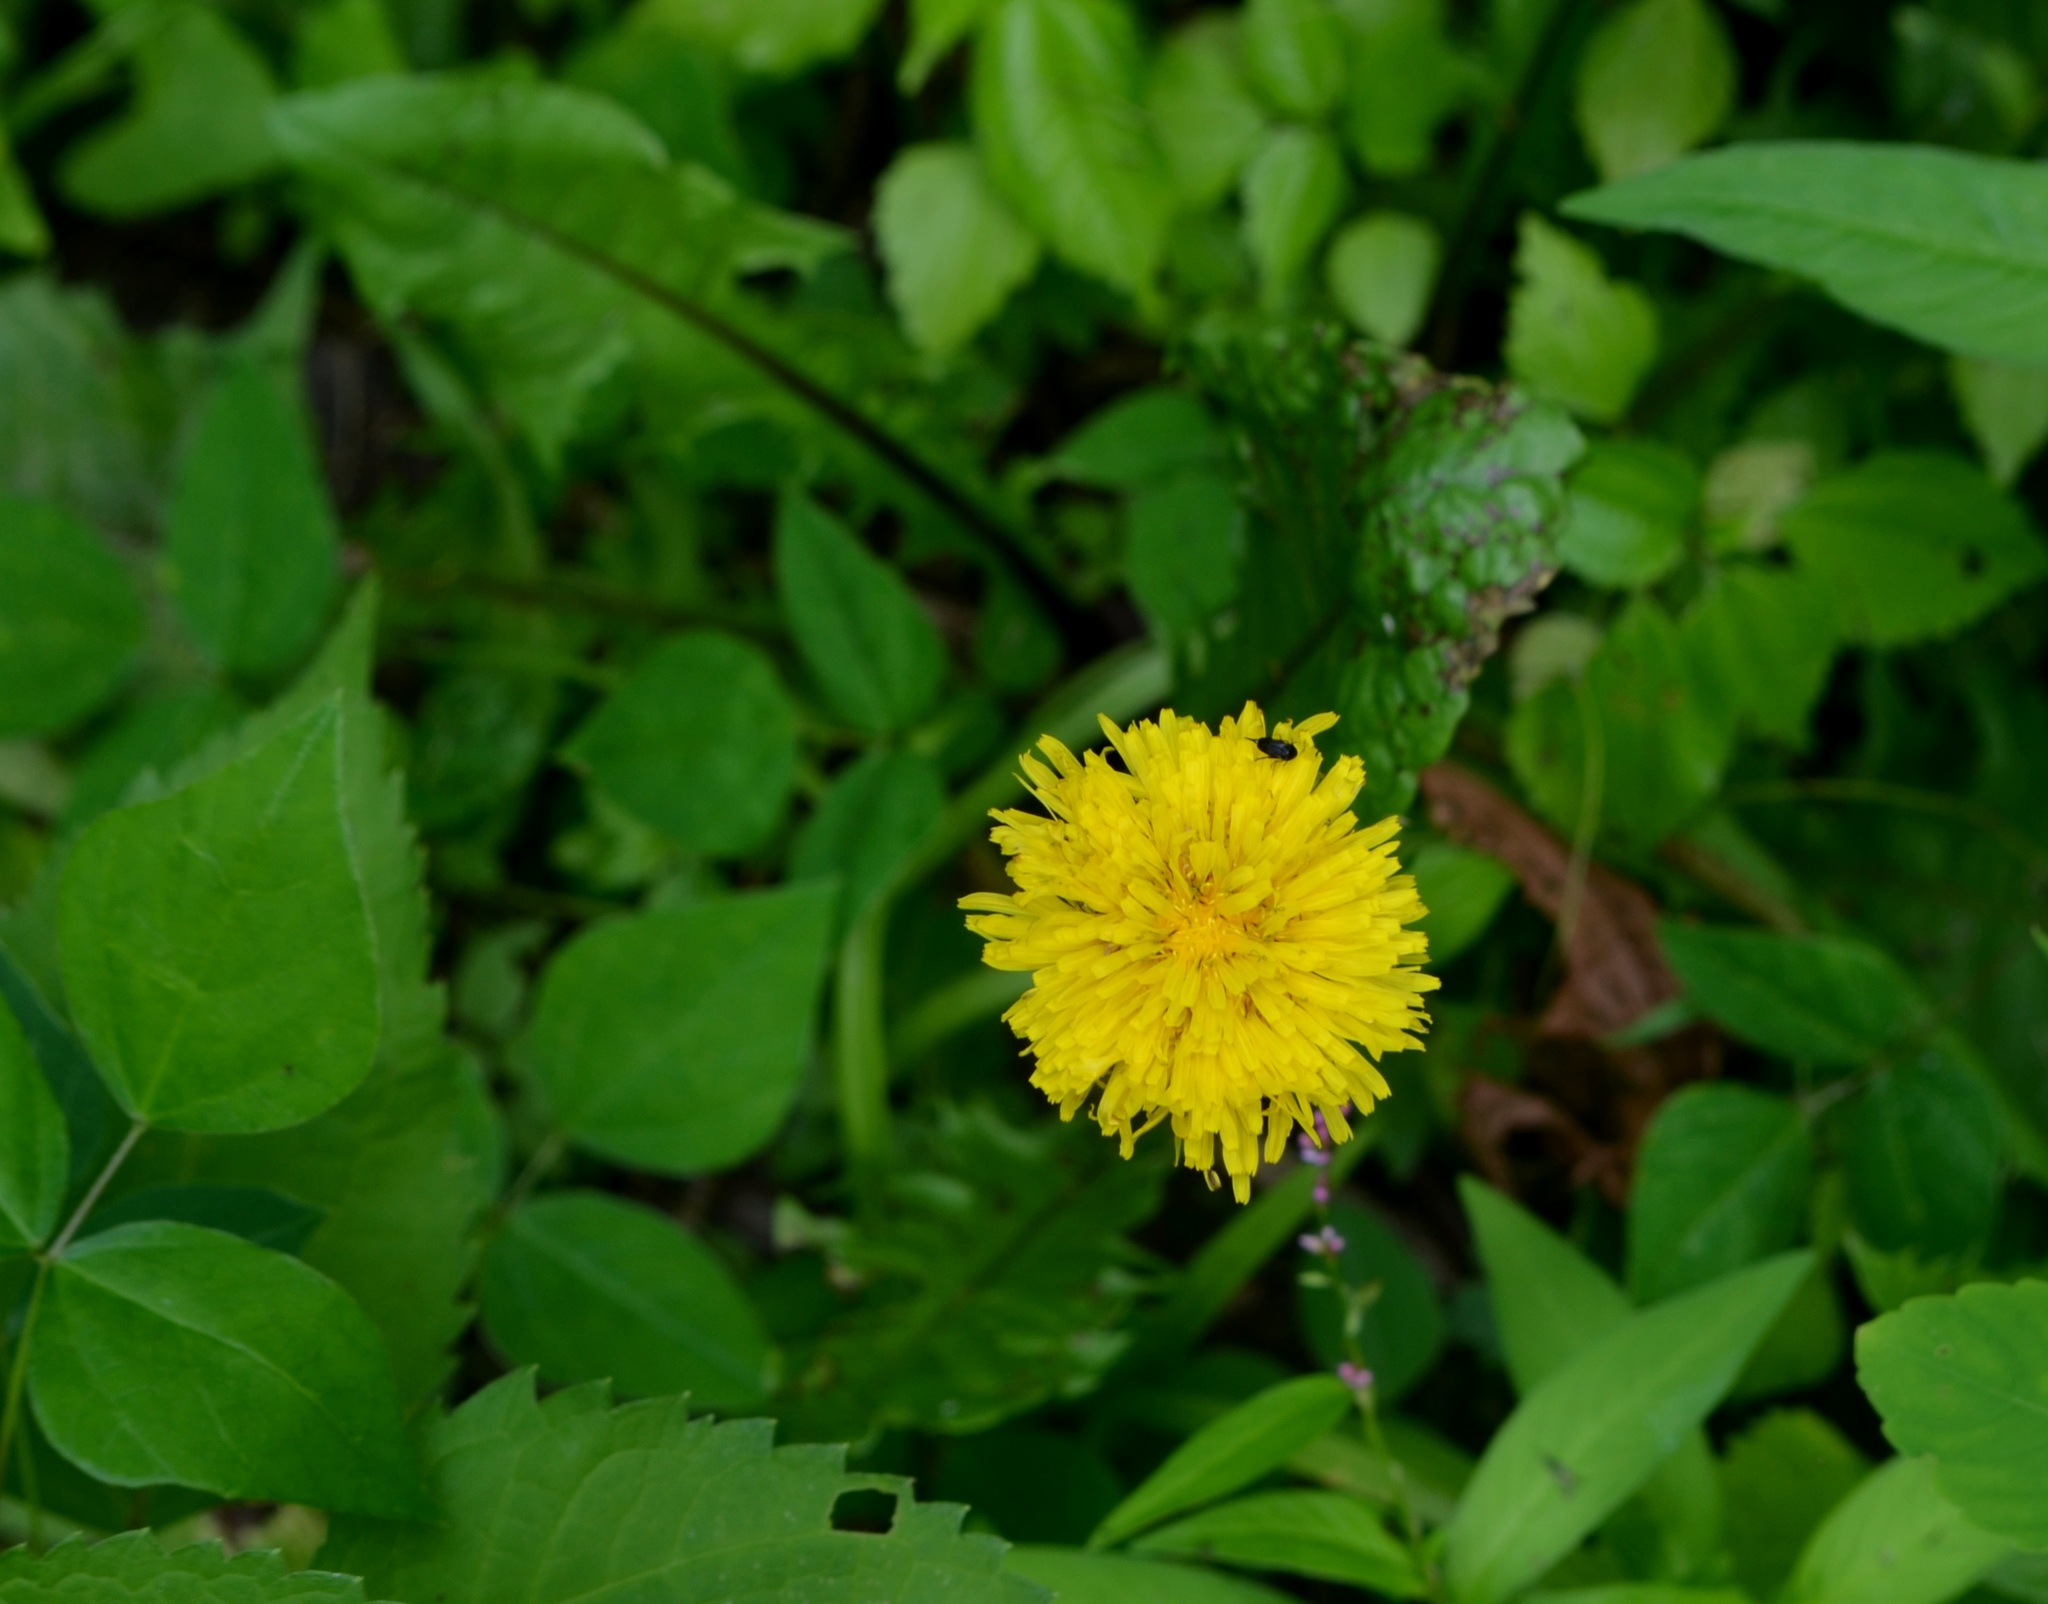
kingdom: Plantae
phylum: Tracheophyta
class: Magnoliopsida
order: Asterales
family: Asteraceae
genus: Taraxacum
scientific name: Taraxacum officinale
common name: Common dandelion
